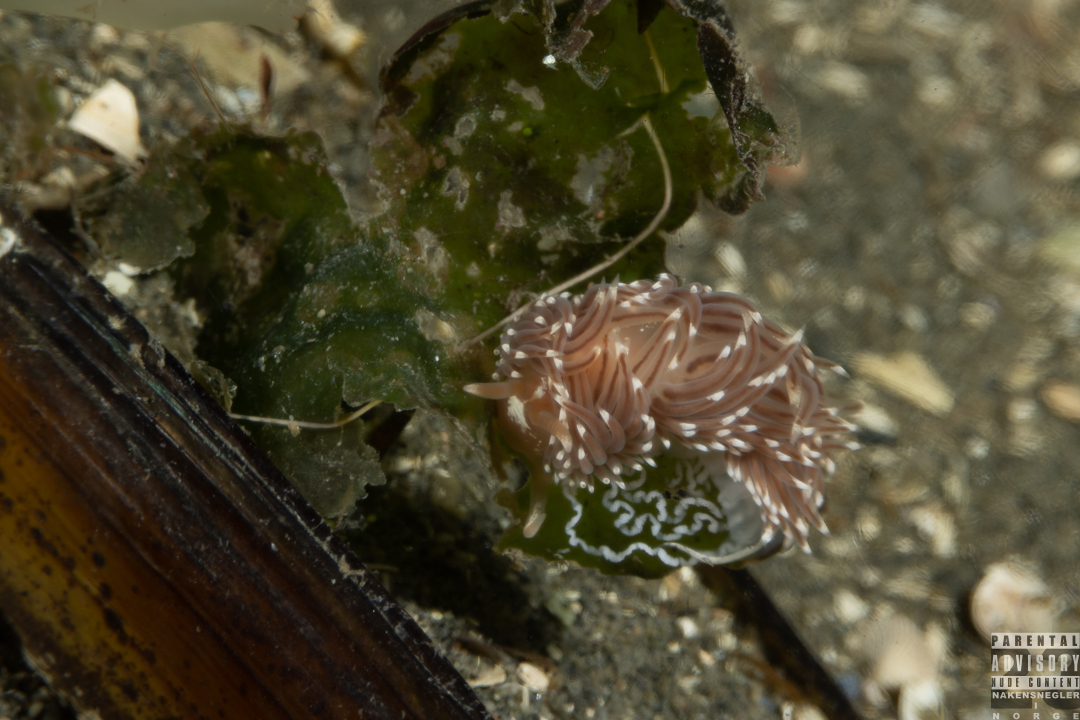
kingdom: Animalia
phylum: Mollusca
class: Gastropoda
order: Nudibranchia
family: Facelinidae
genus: Facelina
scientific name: Facelina bostoniensis
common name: Boston facelina
